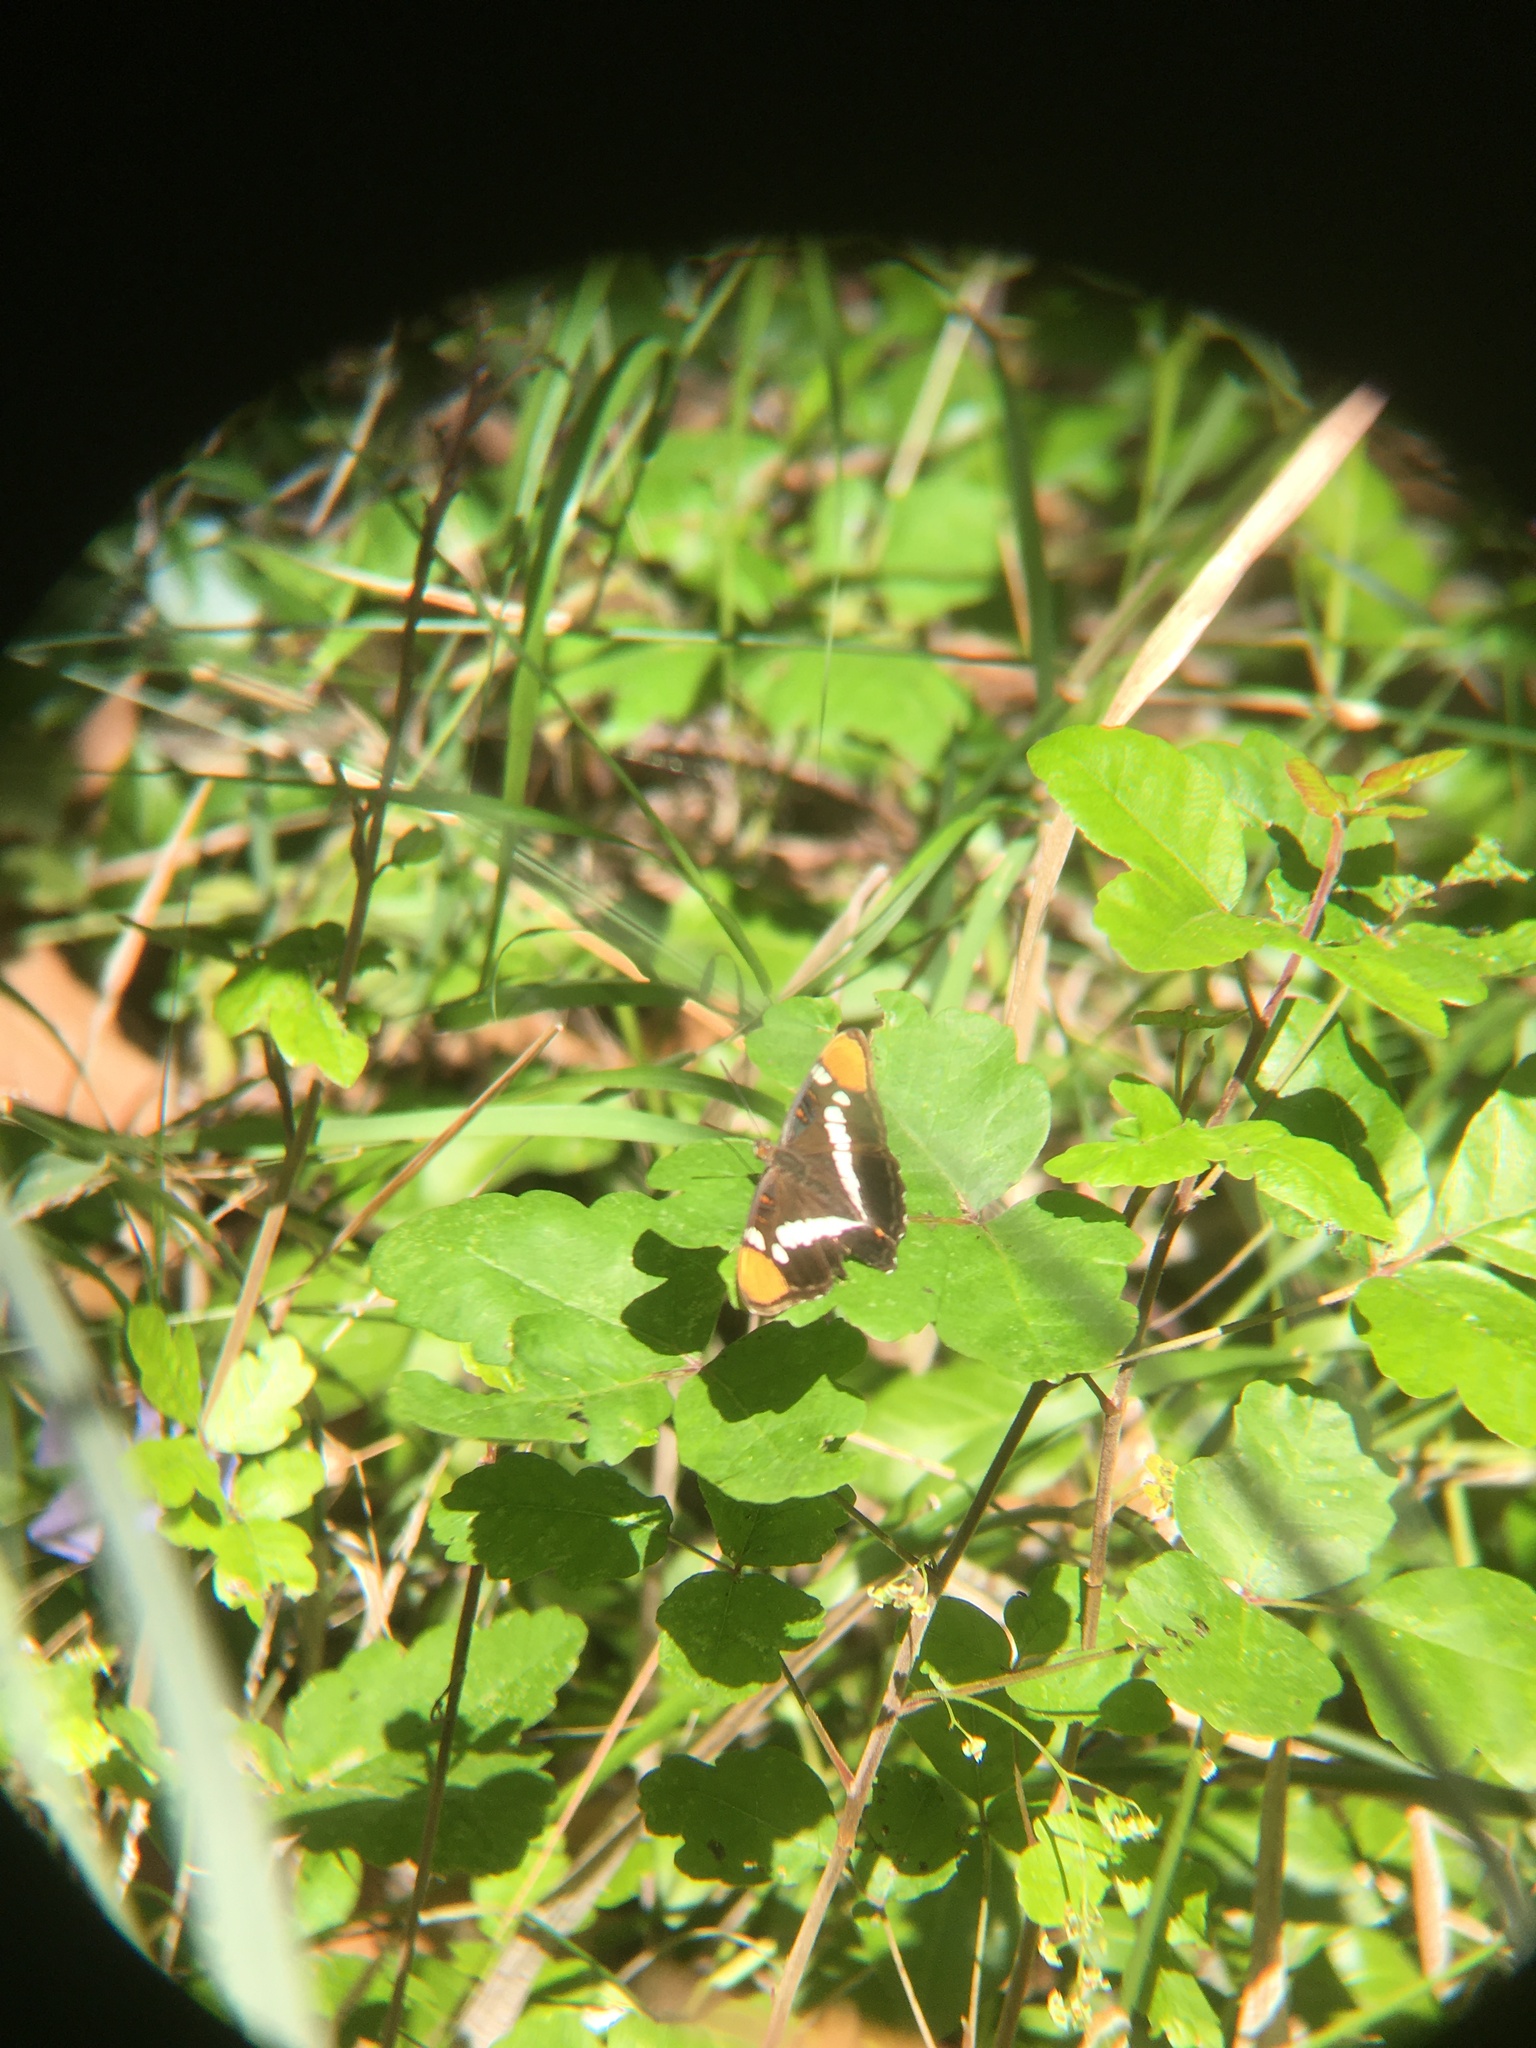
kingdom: Animalia
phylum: Arthropoda
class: Insecta
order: Lepidoptera
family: Nymphalidae
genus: Limenitis
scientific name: Limenitis bredowii
